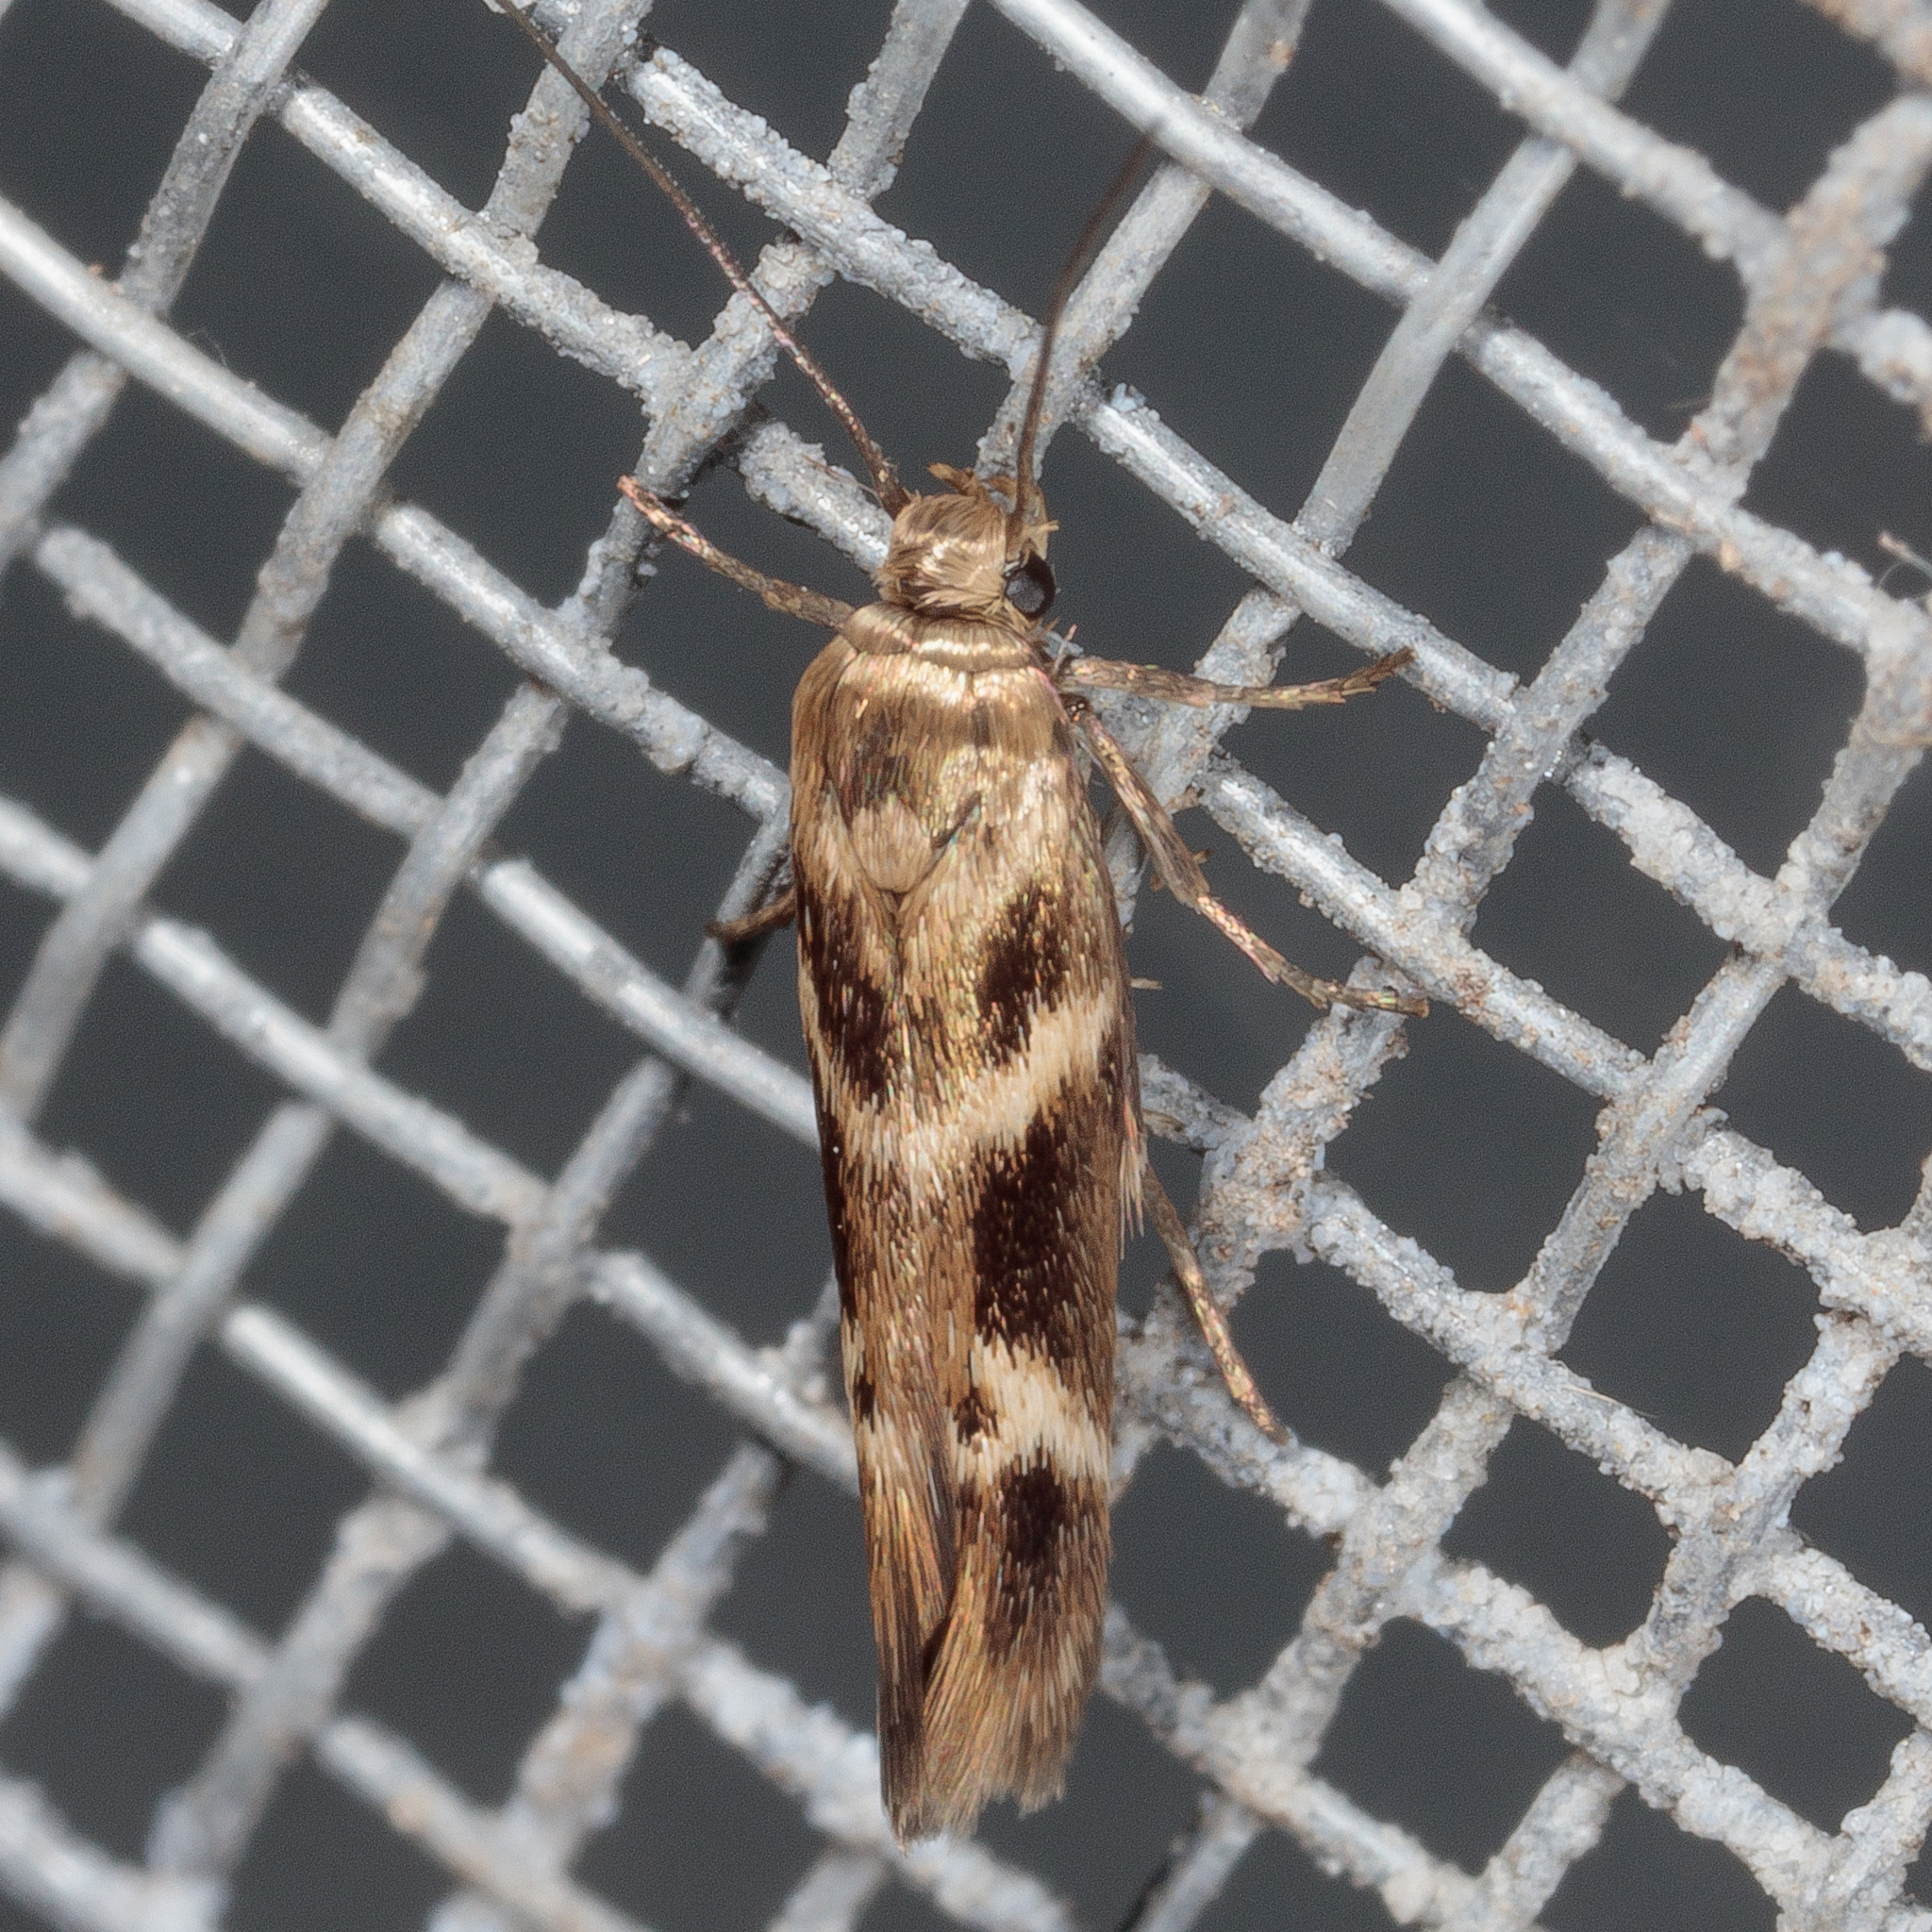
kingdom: Animalia
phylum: Arthropoda
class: Insecta
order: Lepidoptera
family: Scythrididae
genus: Scythris
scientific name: Scythris trivinctella
